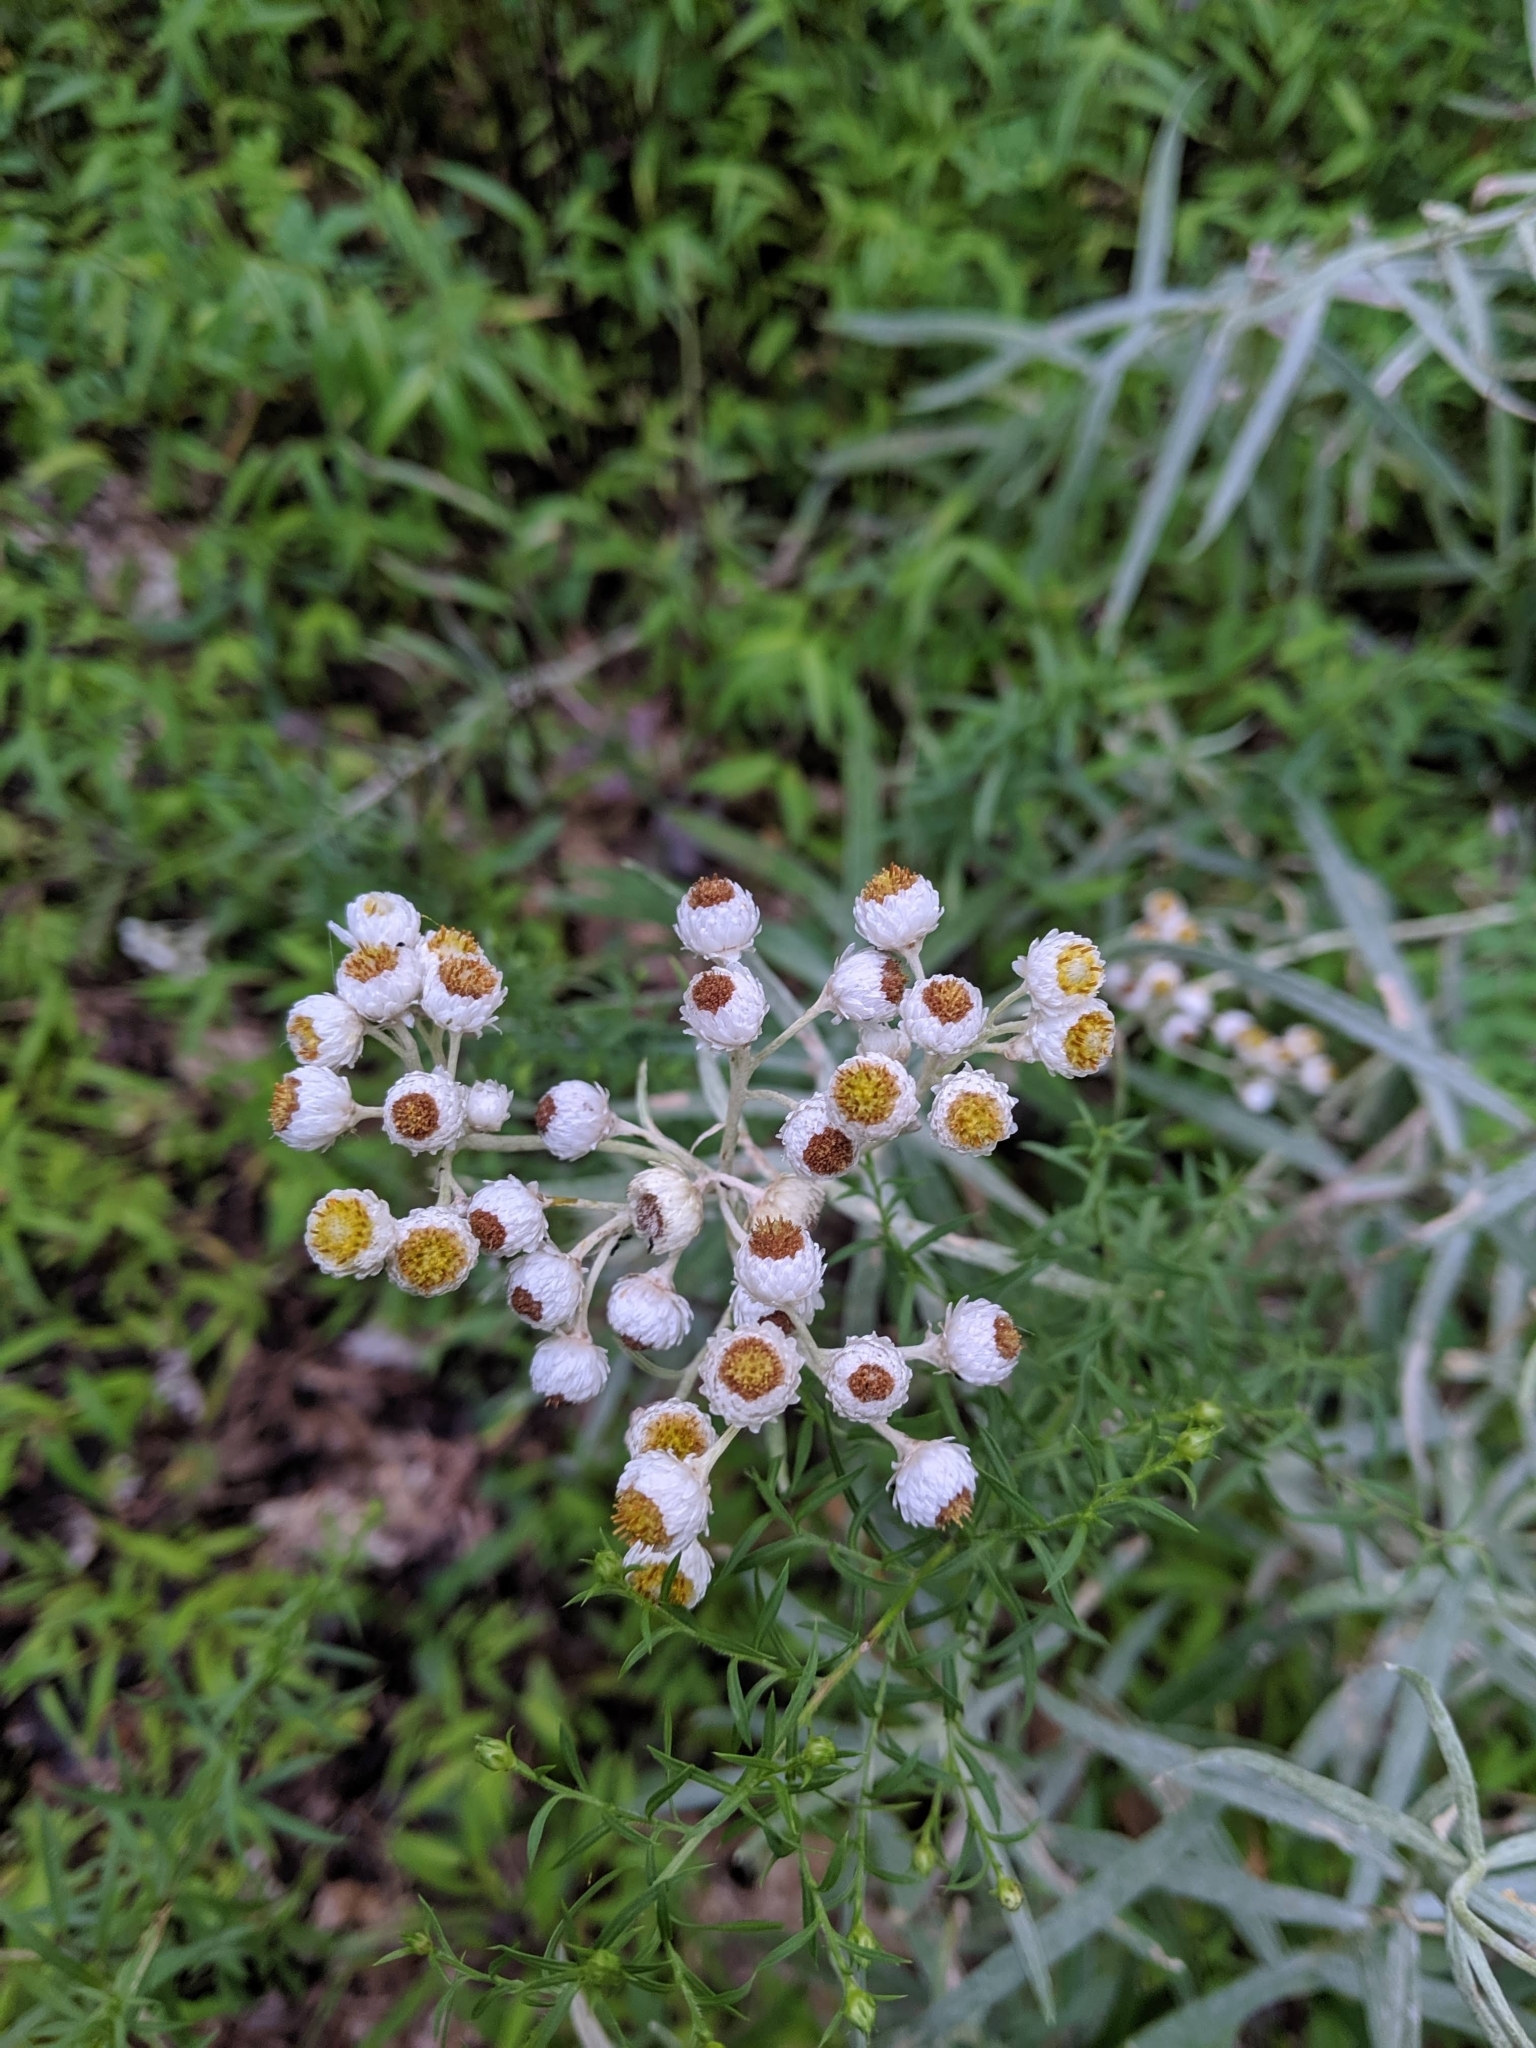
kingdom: Plantae
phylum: Tracheophyta
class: Magnoliopsida
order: Asterales
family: Asteraceae
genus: Anaphalis
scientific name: Anaphalis margaritacea
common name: Pearly everlasting
